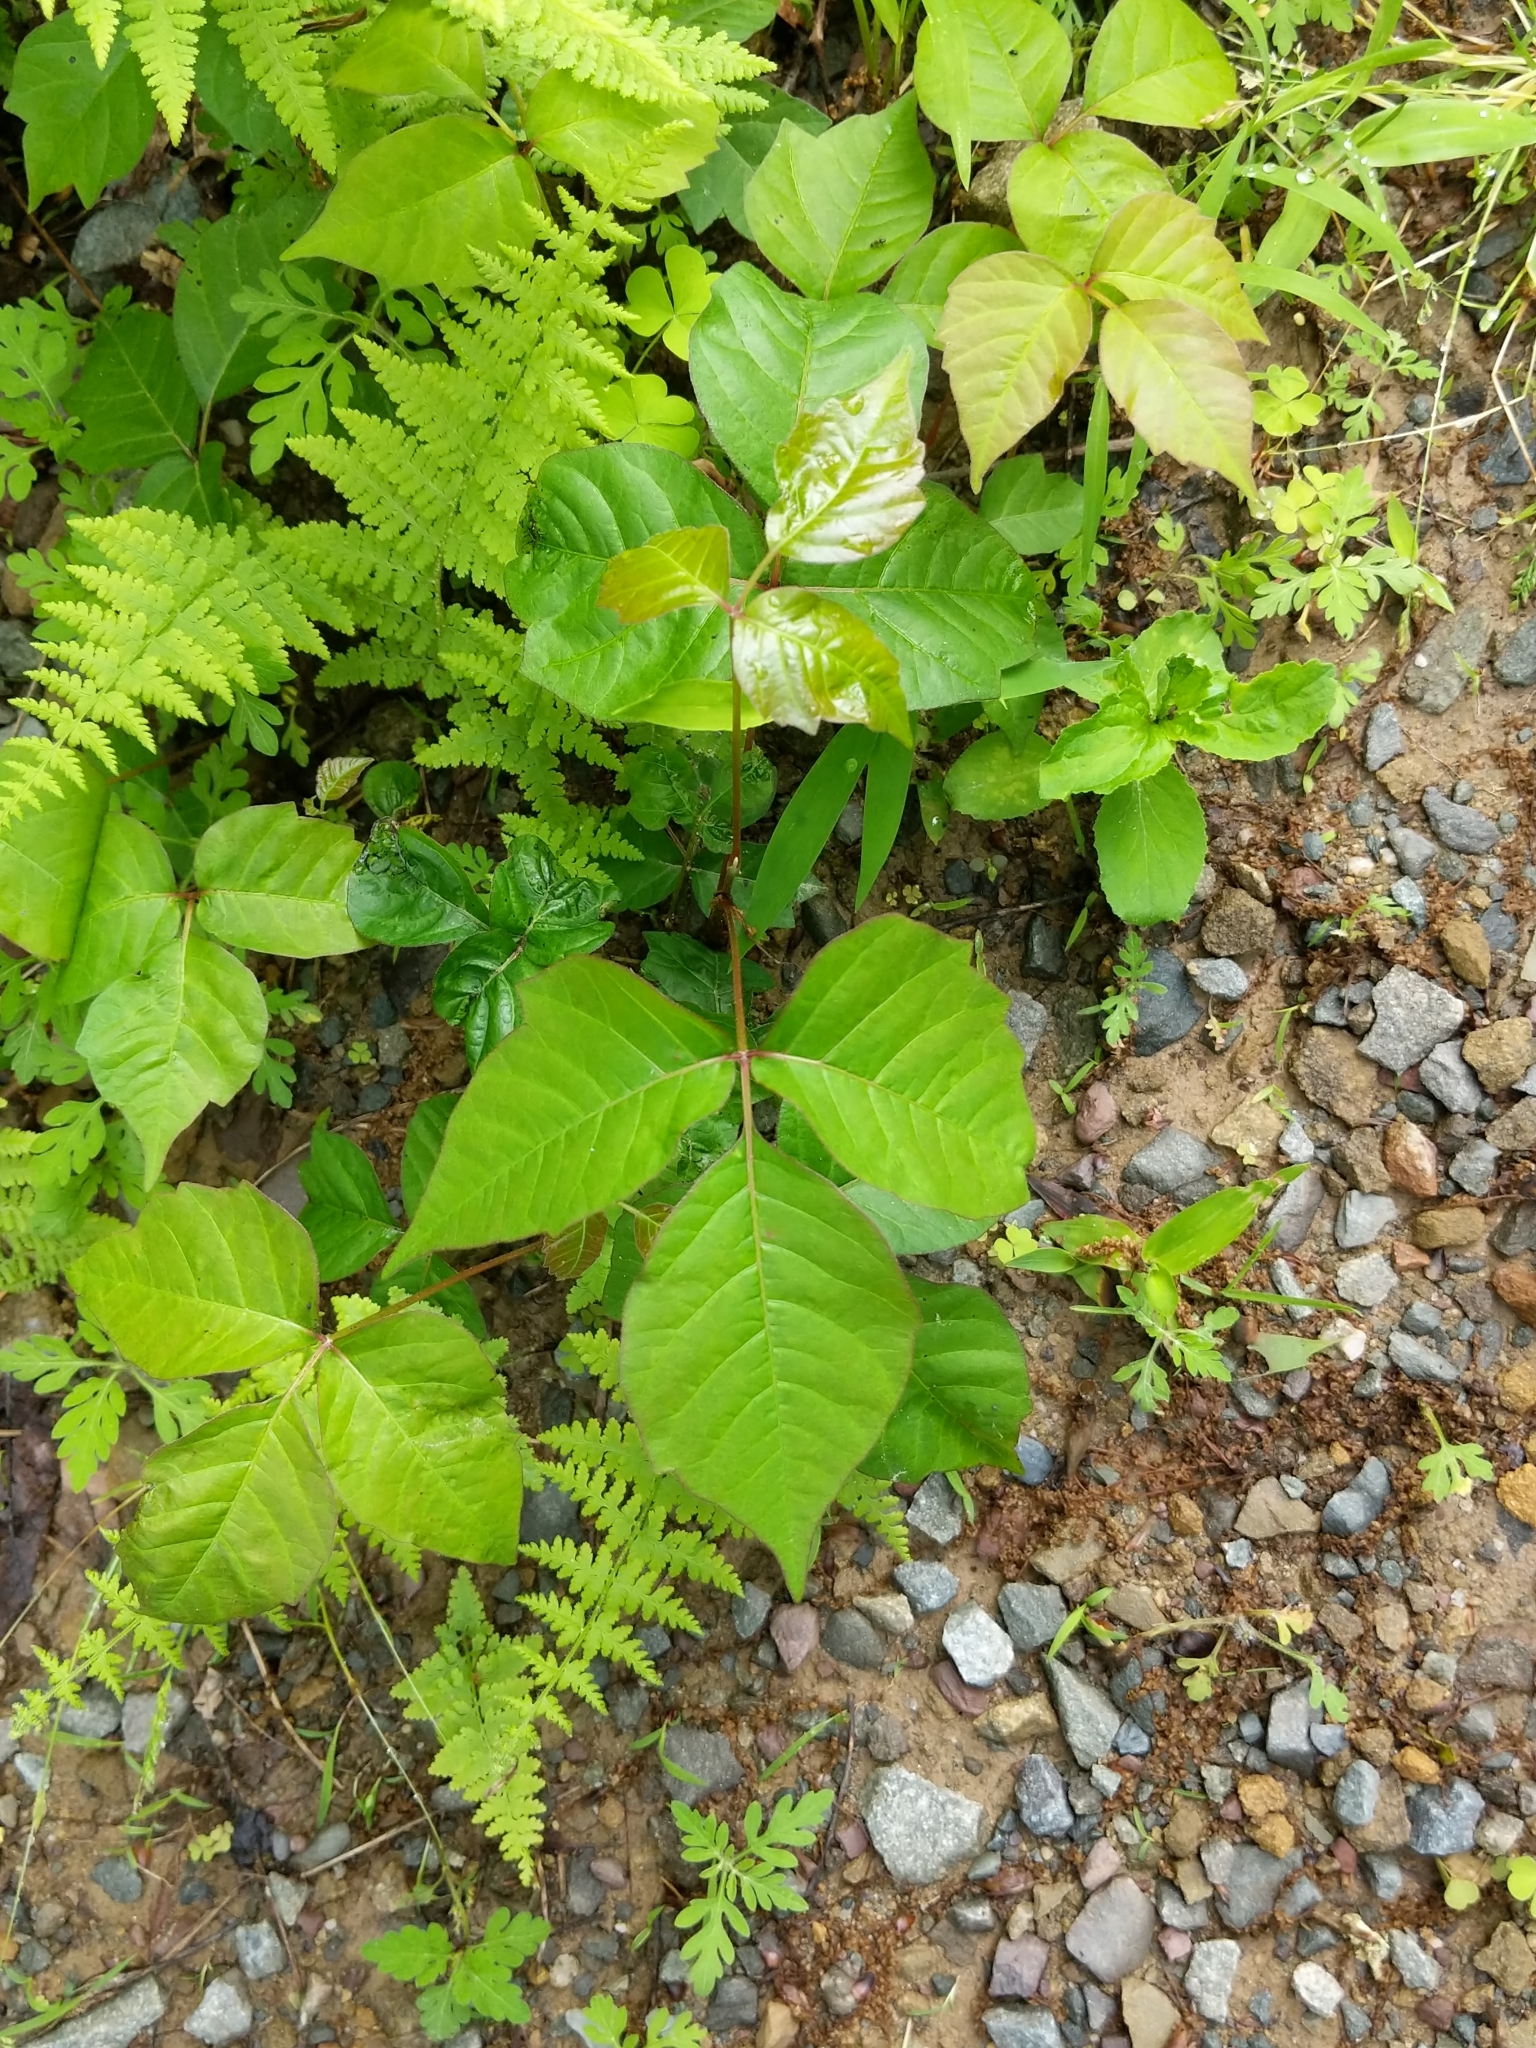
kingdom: Plantae
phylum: Tracheophyta
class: Magnoliopsida
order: Sapindales
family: Anacardiaceae
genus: Toxicodendron
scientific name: Toxicodendron radicans
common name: Poison ivy
